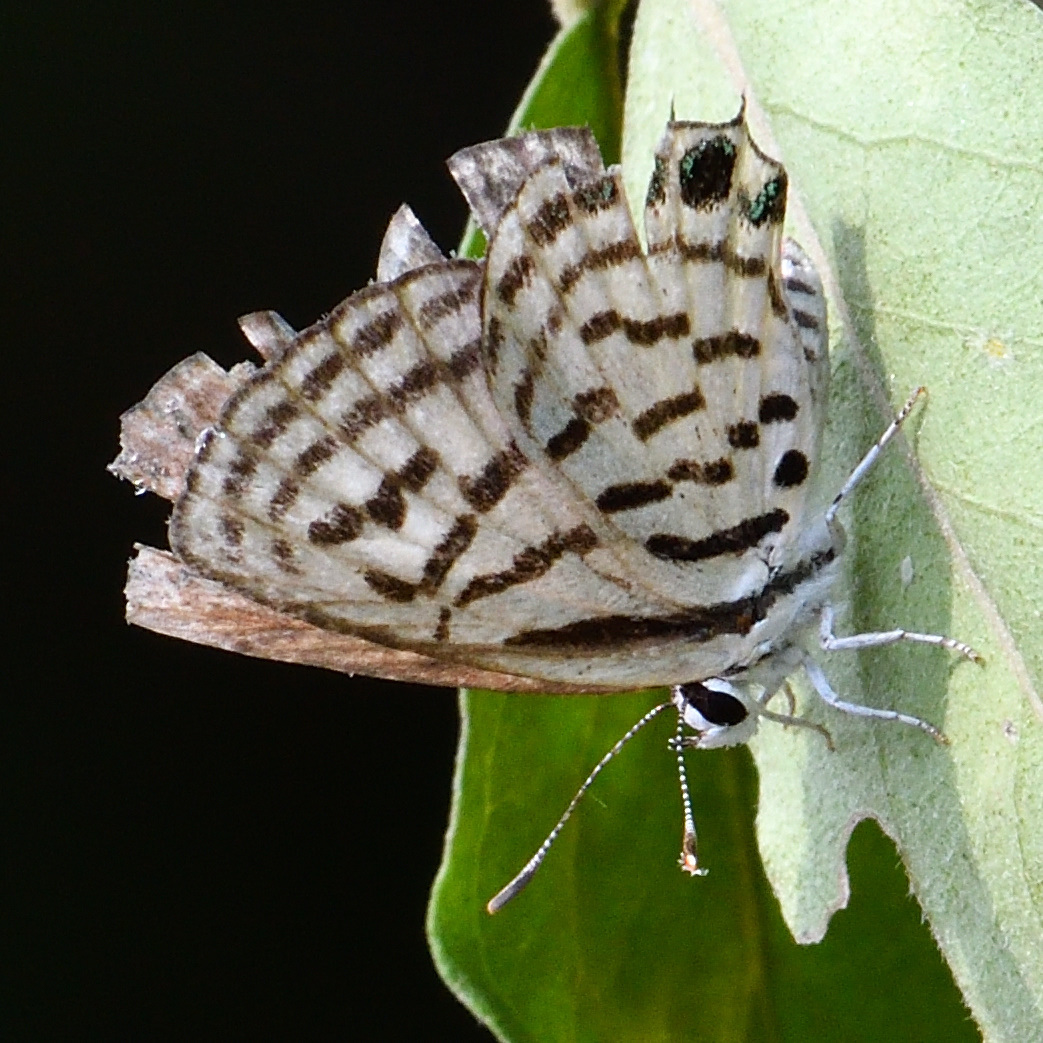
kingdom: Animalia
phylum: Arthropoda
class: Insecta
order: Lepidoptera
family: Lycaenidae
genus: Tarucus
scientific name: Tarucus nara
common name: Striped pierrot
